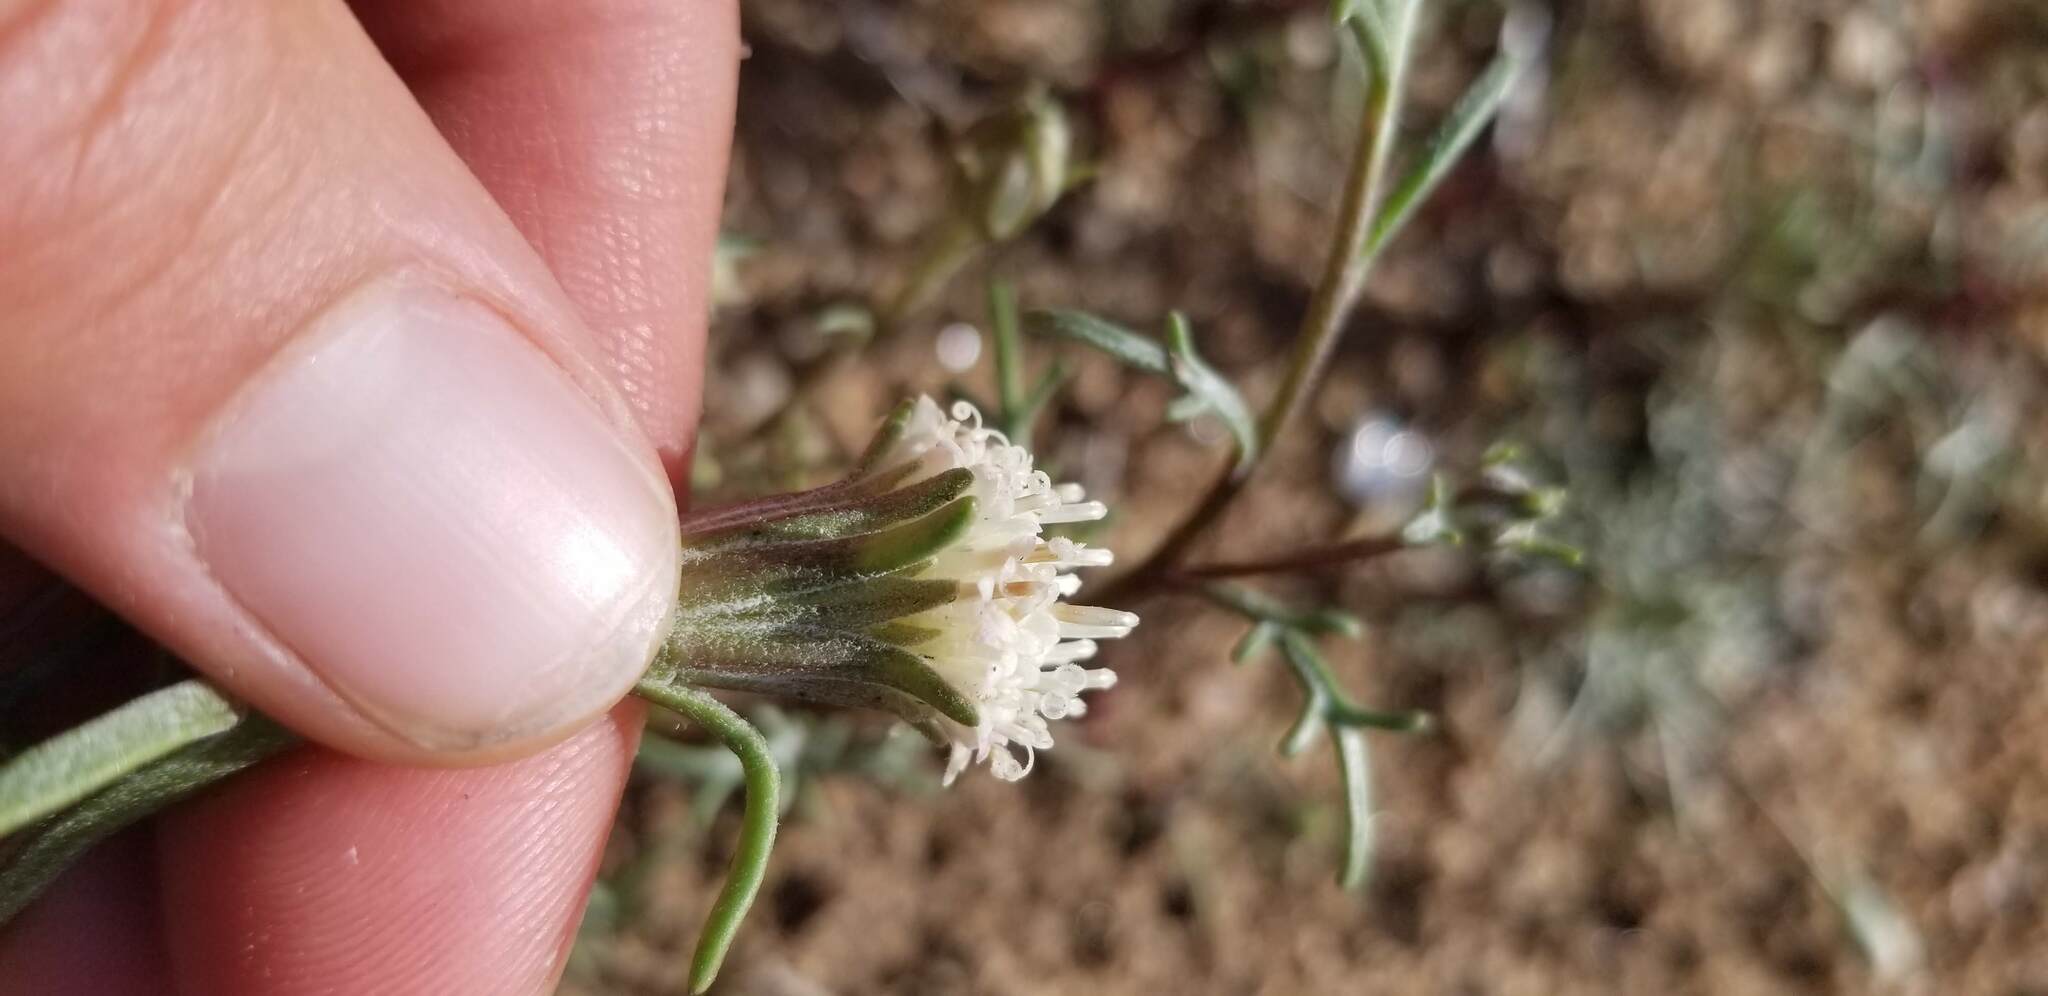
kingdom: Plantae
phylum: Tracheophyta
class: Magnoliopsida
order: Asterales
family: Asteraceae
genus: Chaenactis
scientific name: Chaenactis xantiana
